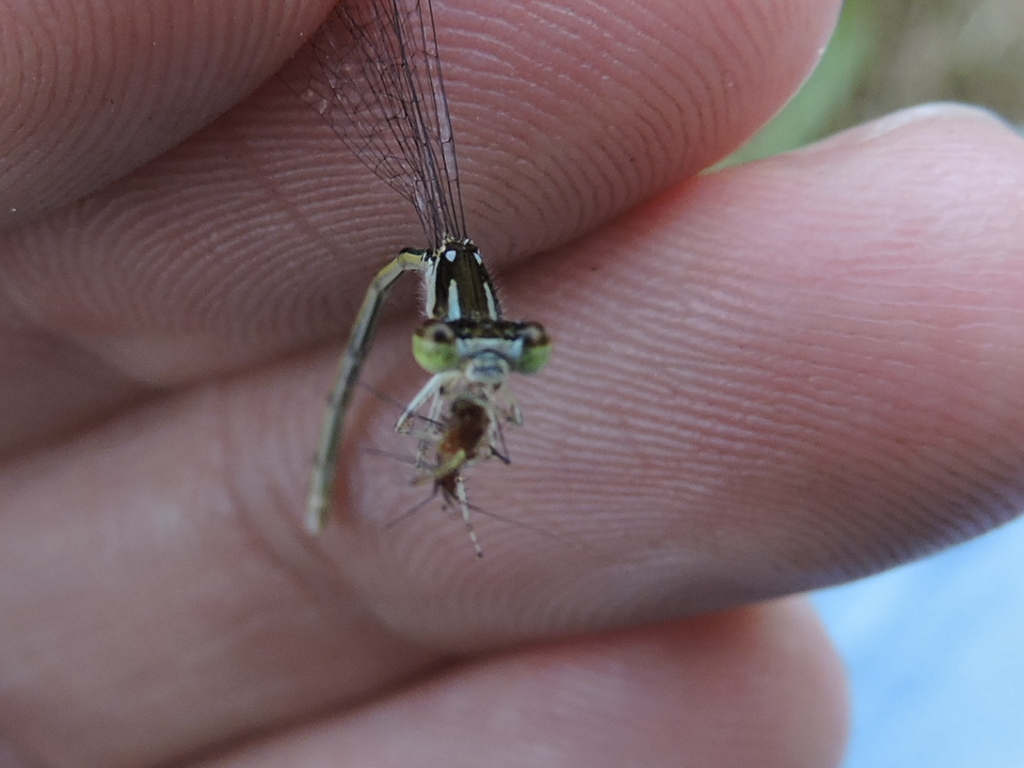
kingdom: Animalia
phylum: Arthropoda
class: Insecta
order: Odonata
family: Coenagrionidae
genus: Ischnura
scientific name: Ischnura posita
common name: Fragile forktail
